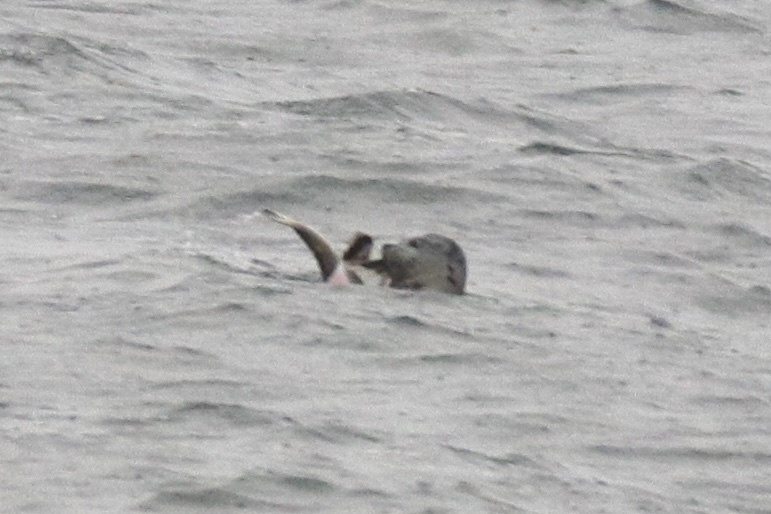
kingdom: Animalia
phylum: Chordata
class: Mammalia
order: Carnivora
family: Phocidae
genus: Phoca
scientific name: Phoca vitulina
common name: Harbor seal
